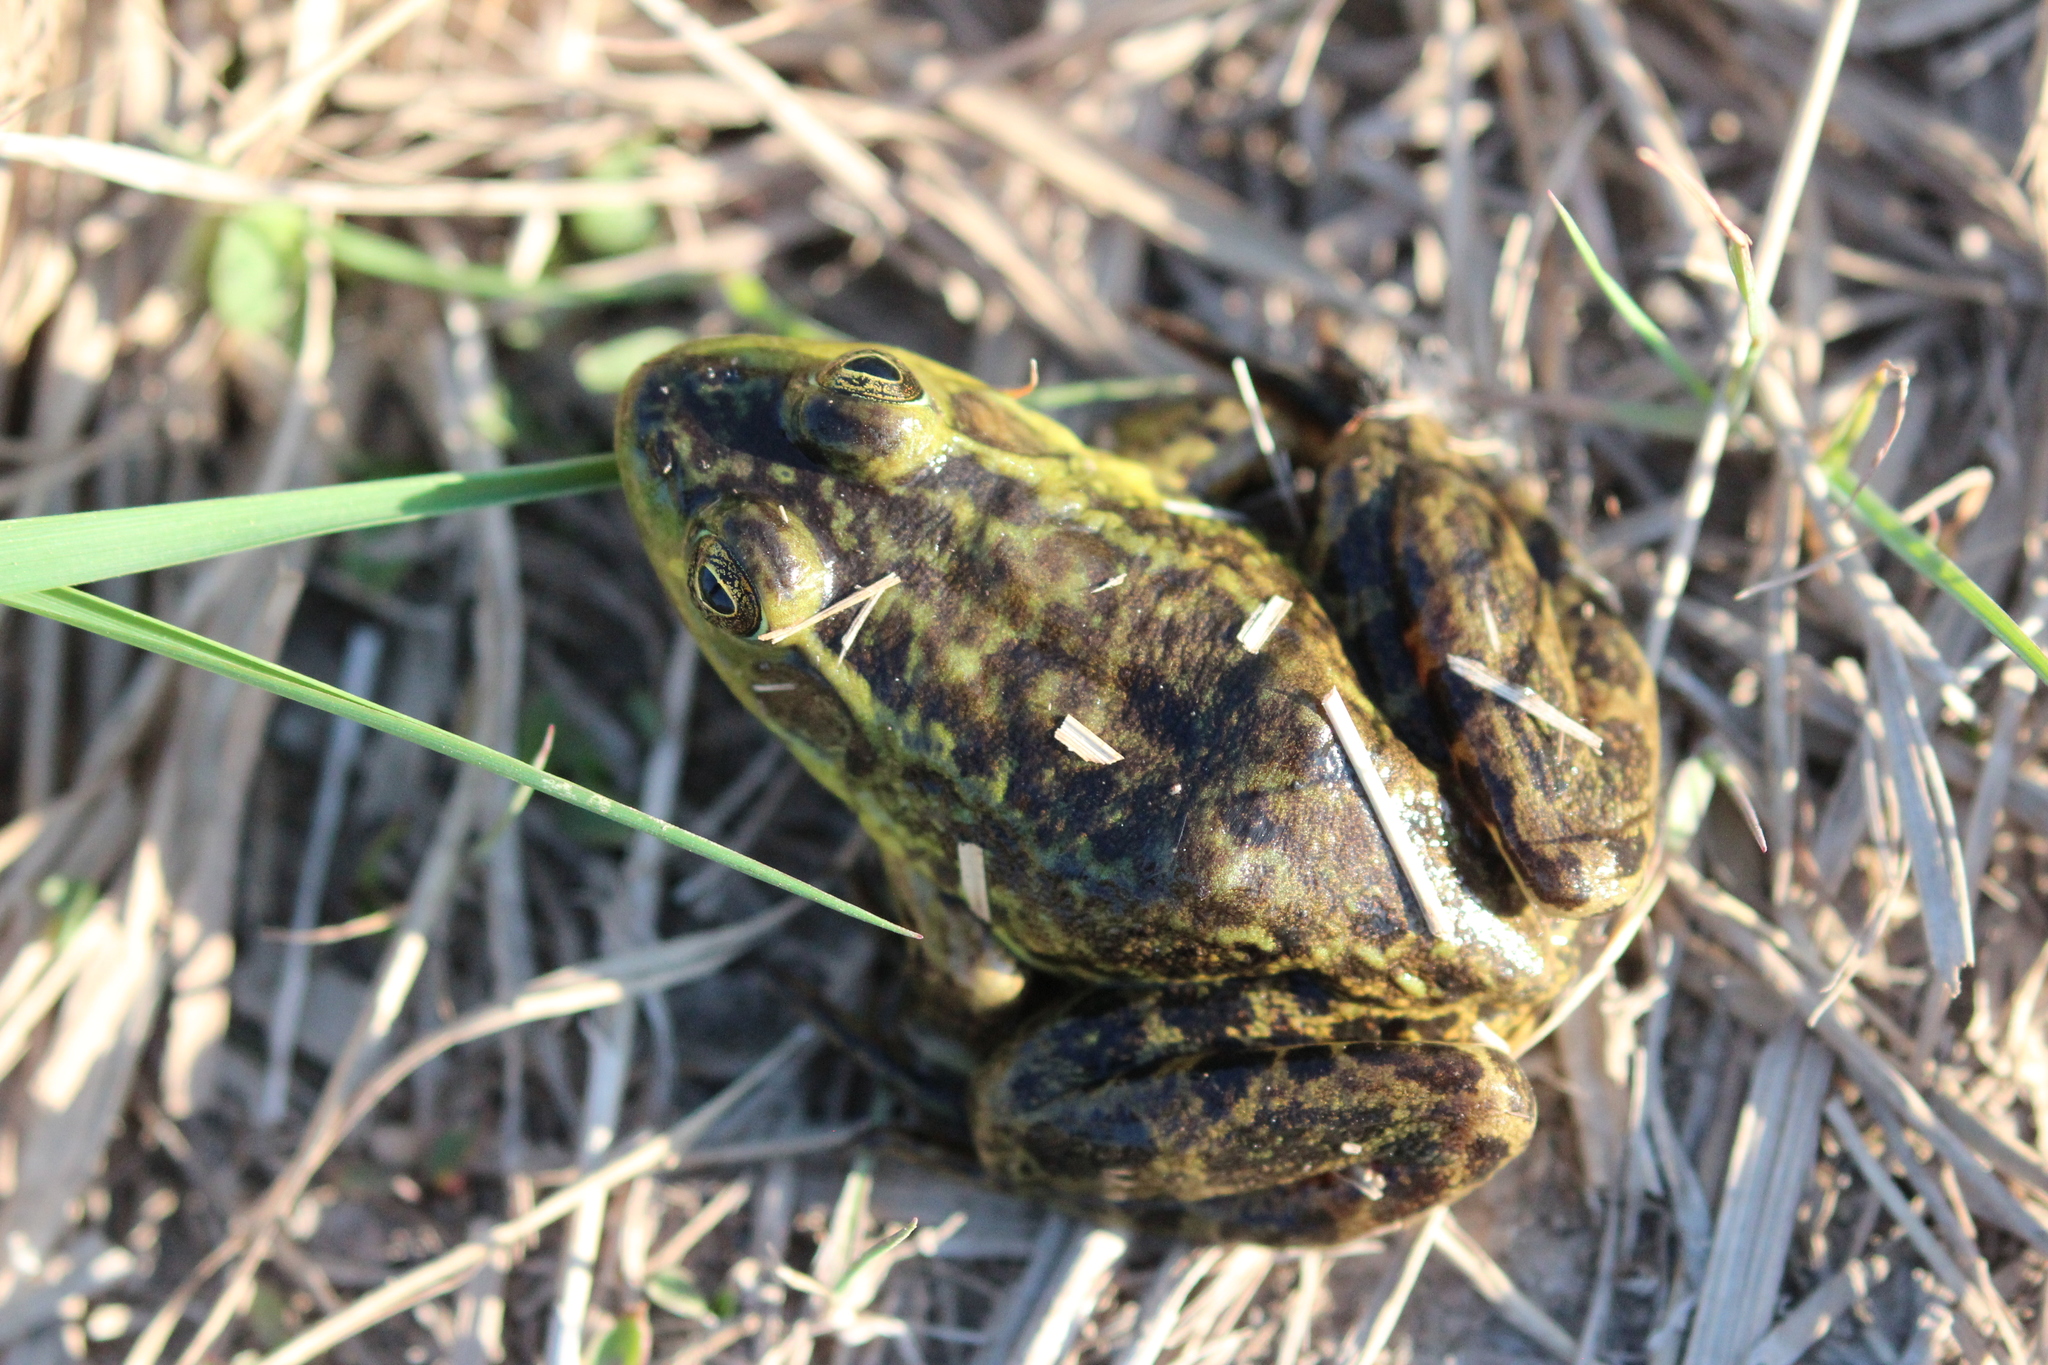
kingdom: Animalia
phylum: Chordata
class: Amphibia
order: Anura
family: Ranidae
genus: Lithobates
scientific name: Lithobates septentrionalis
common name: Mink frog
